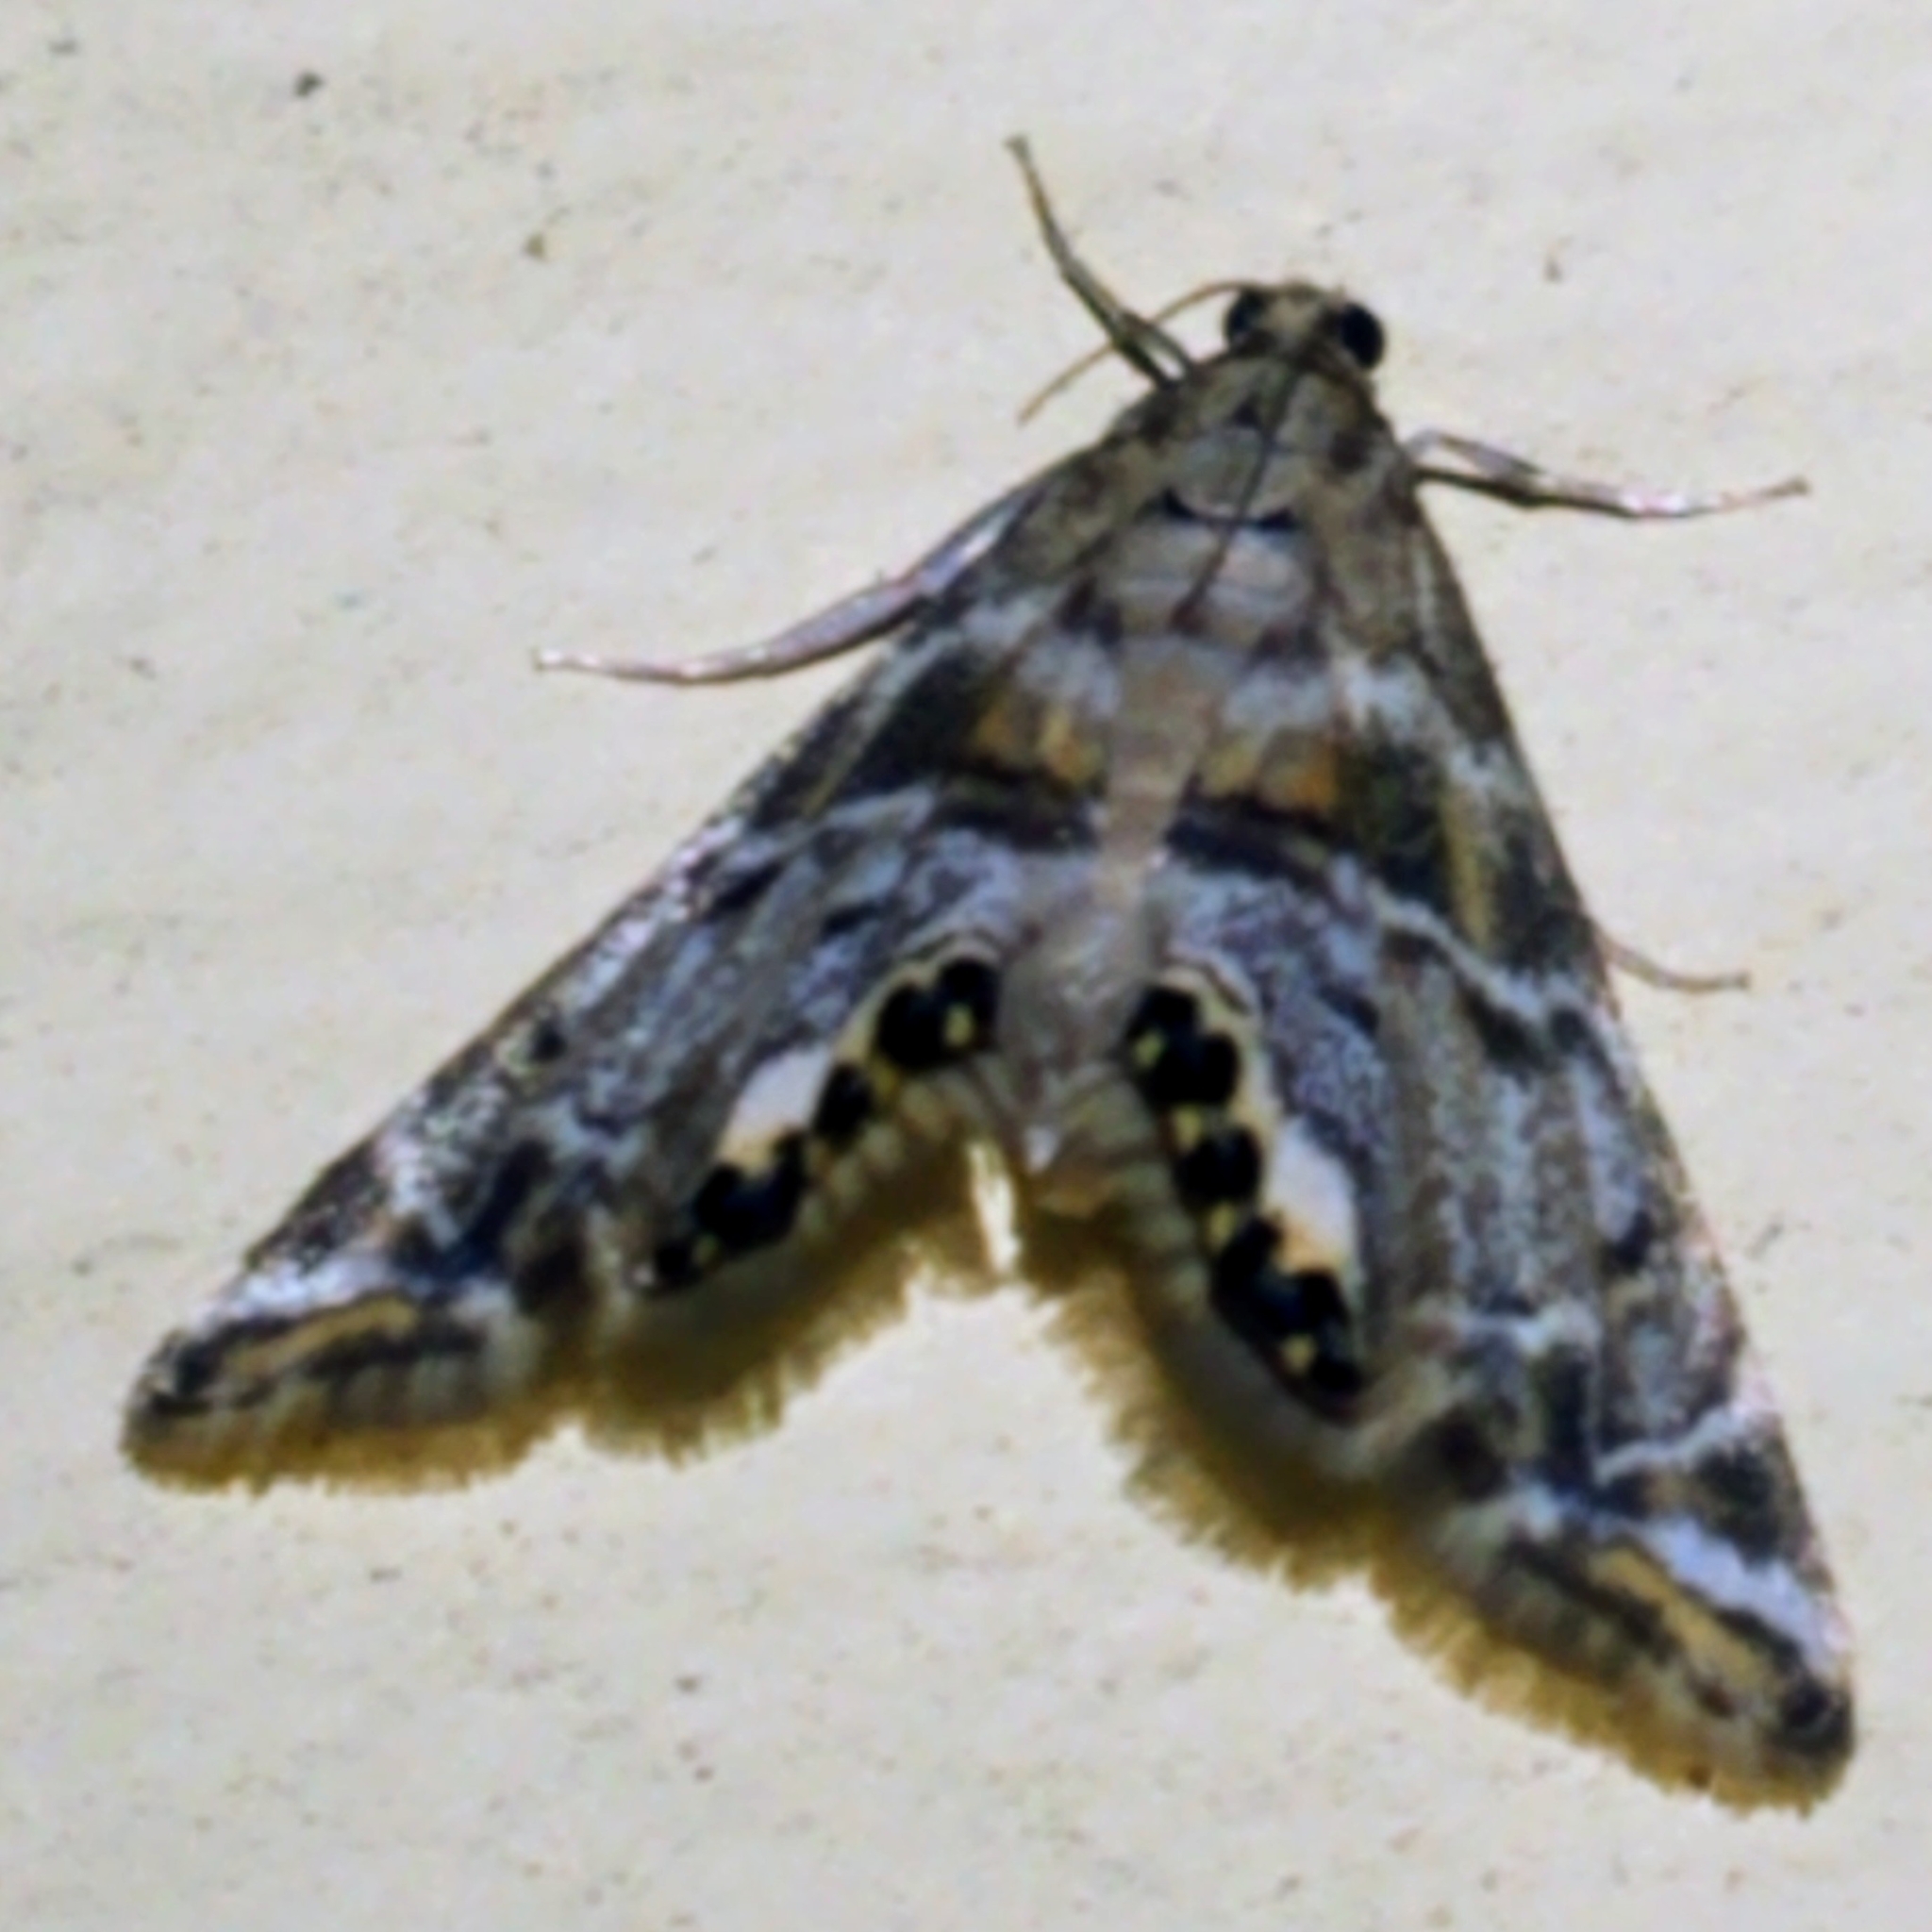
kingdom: Animalia
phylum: Arthropoda
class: Insecta
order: Lepidoptera
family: Crambidae
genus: Petrophila
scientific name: Petrophila confusalis
